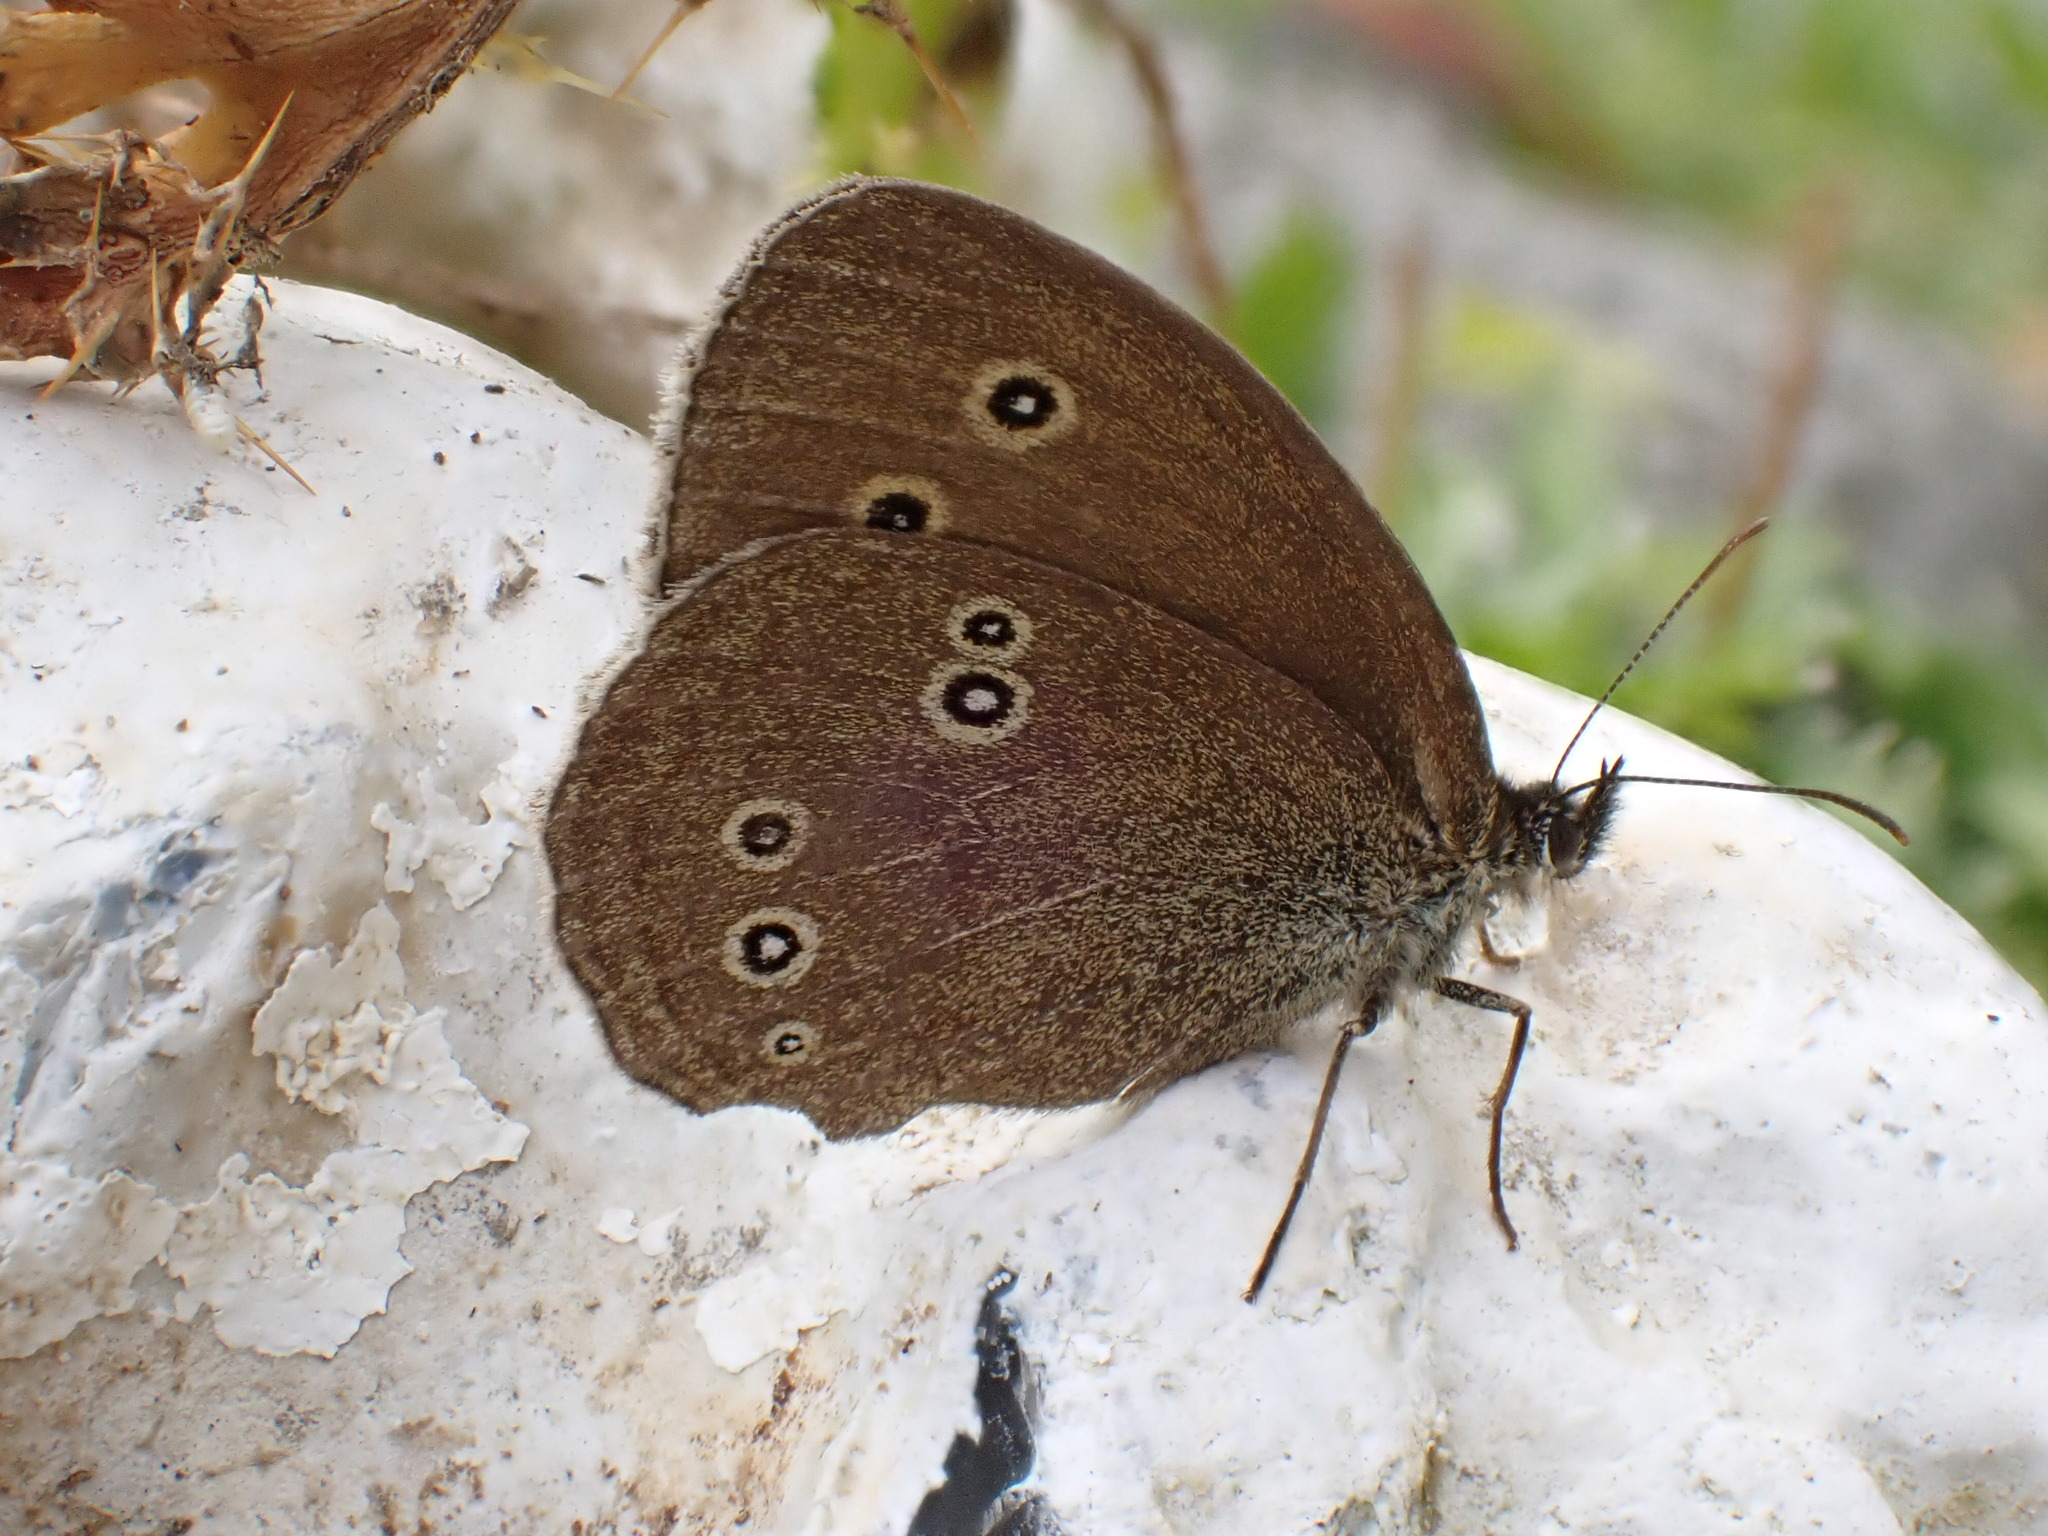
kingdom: Animalia
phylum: Arthropoda
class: Insecta
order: Lepidoptera
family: Nymphalidae
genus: Aphantopus
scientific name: Aphantopus hyperantus
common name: Ringlet
